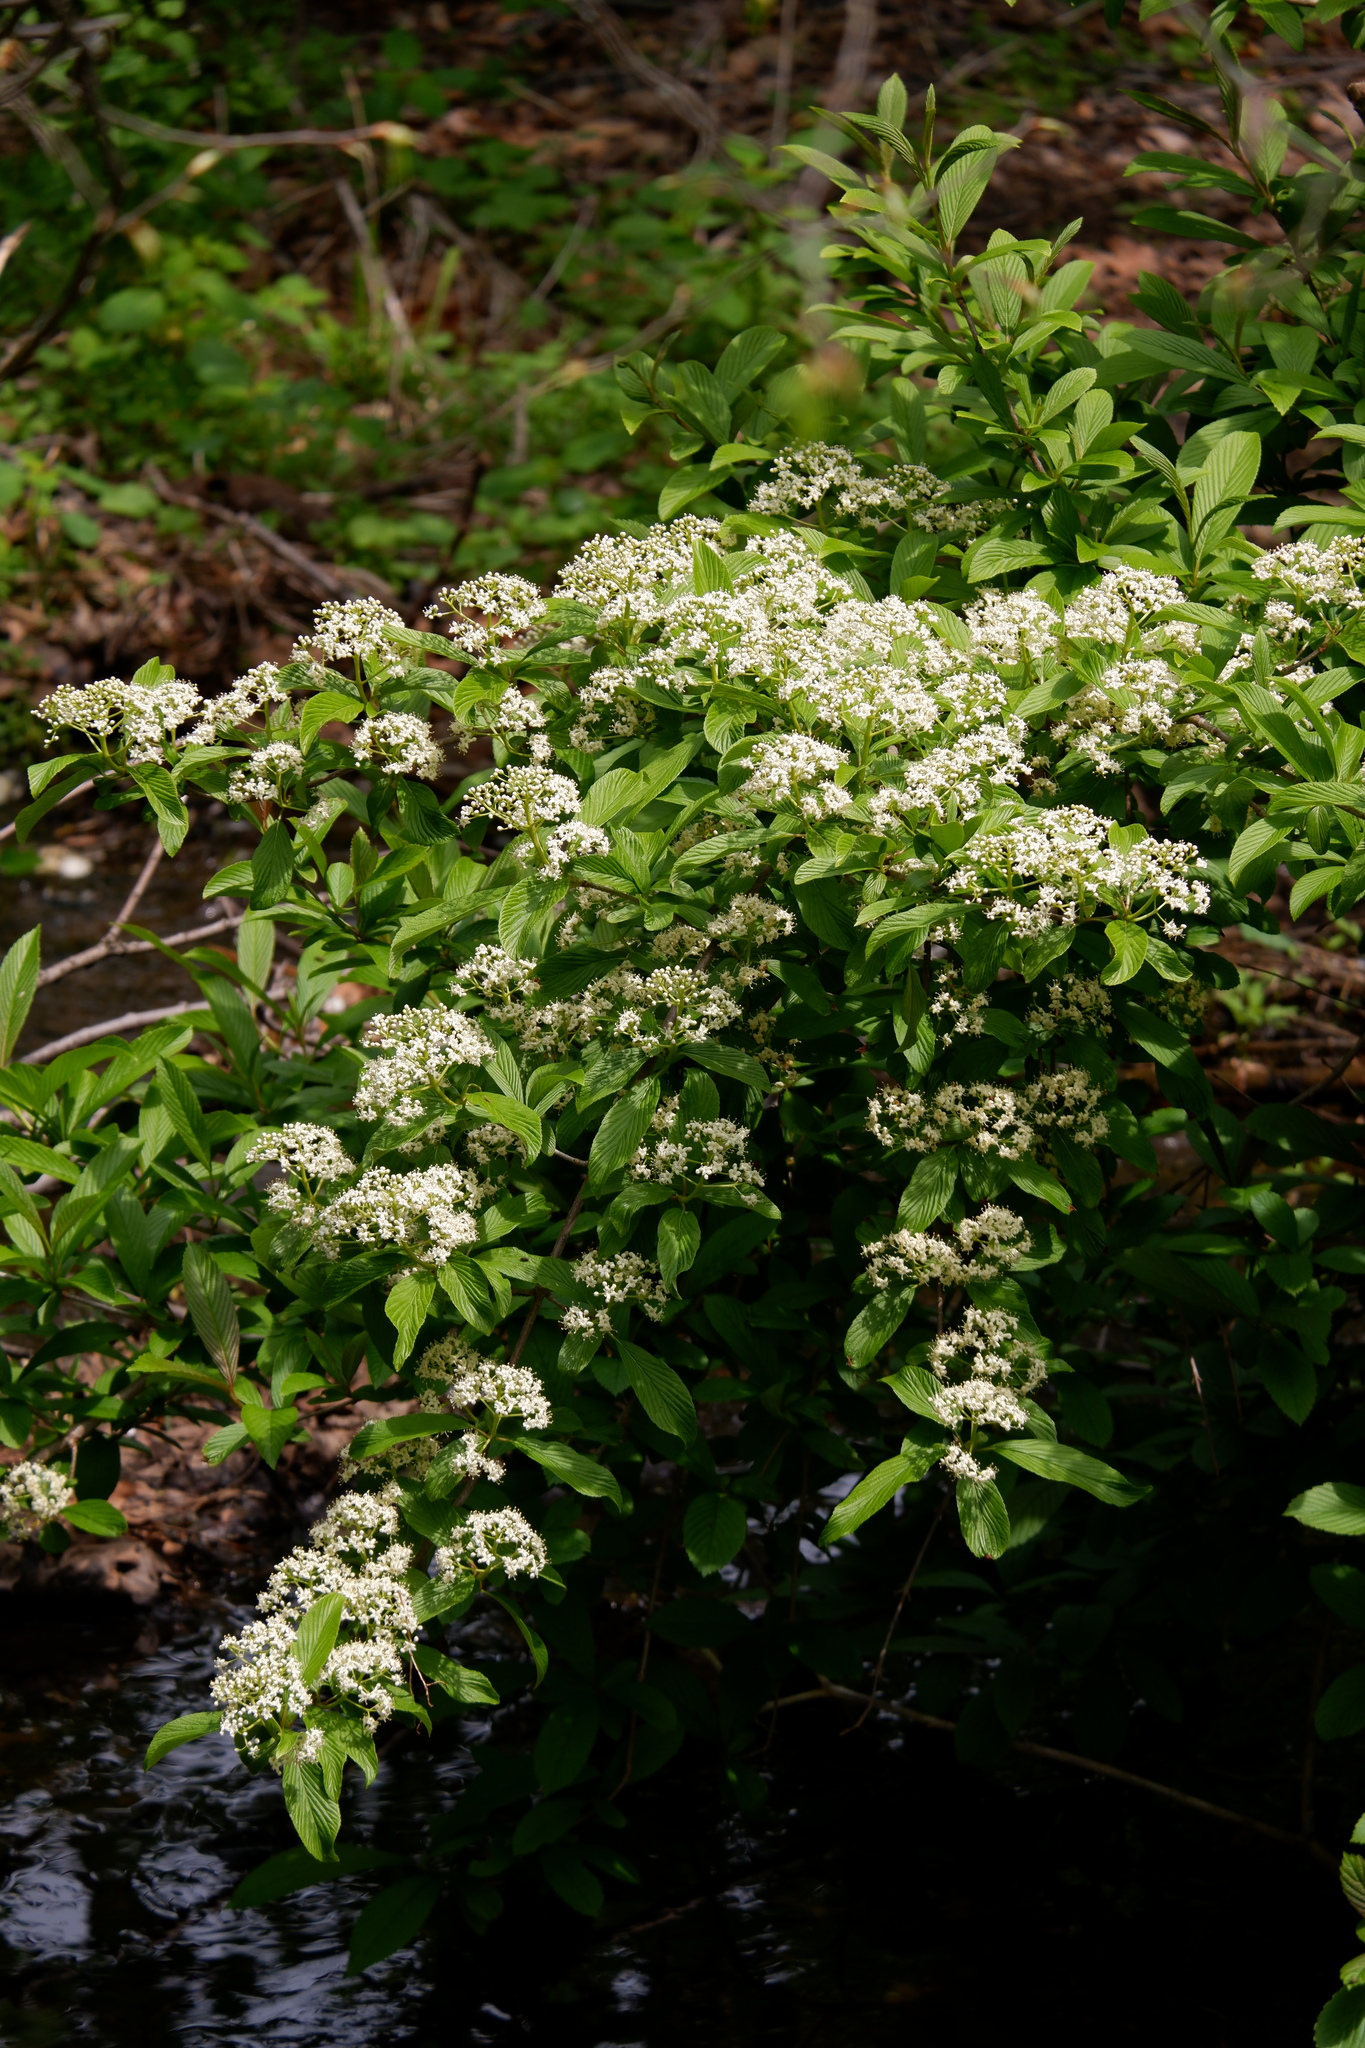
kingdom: Plantae
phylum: Tracheophyta
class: Magnoliopsida
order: Dipsacales
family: Viburnaceae
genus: Viburnum
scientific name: Viburnum sieboldii
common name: Siebold's arrowwood
